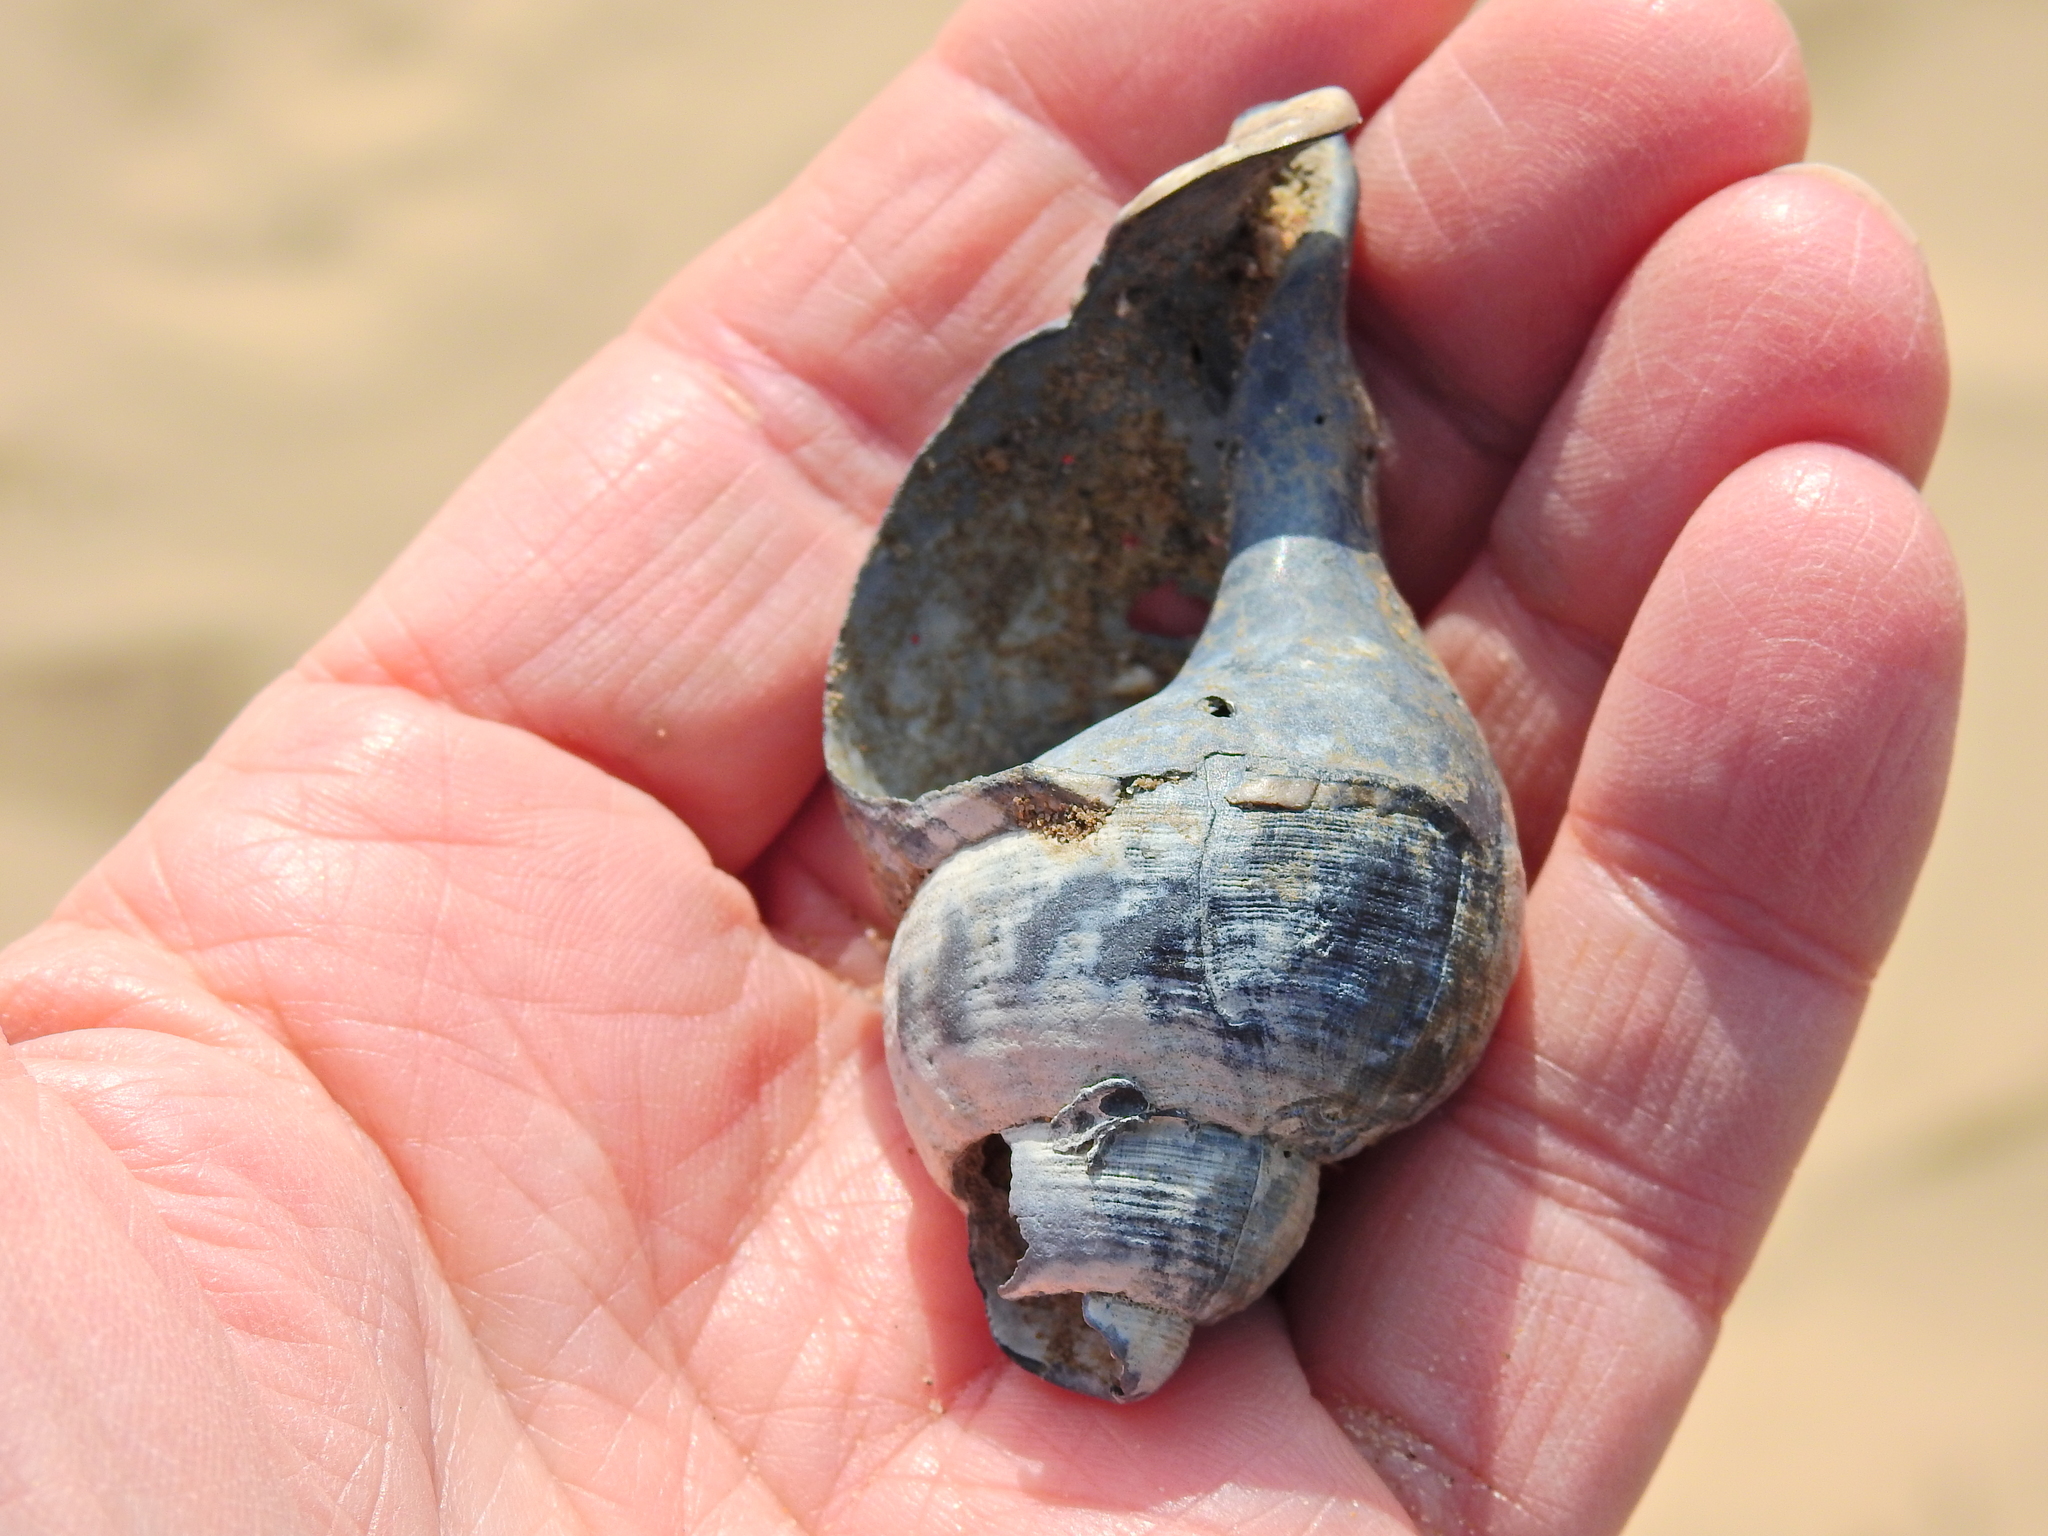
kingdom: Animalia
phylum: Mollusca
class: Gastropoda
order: Neogastropoda
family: Buccinidae
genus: Buccinum
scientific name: Buccinum undatum
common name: Common whelk
